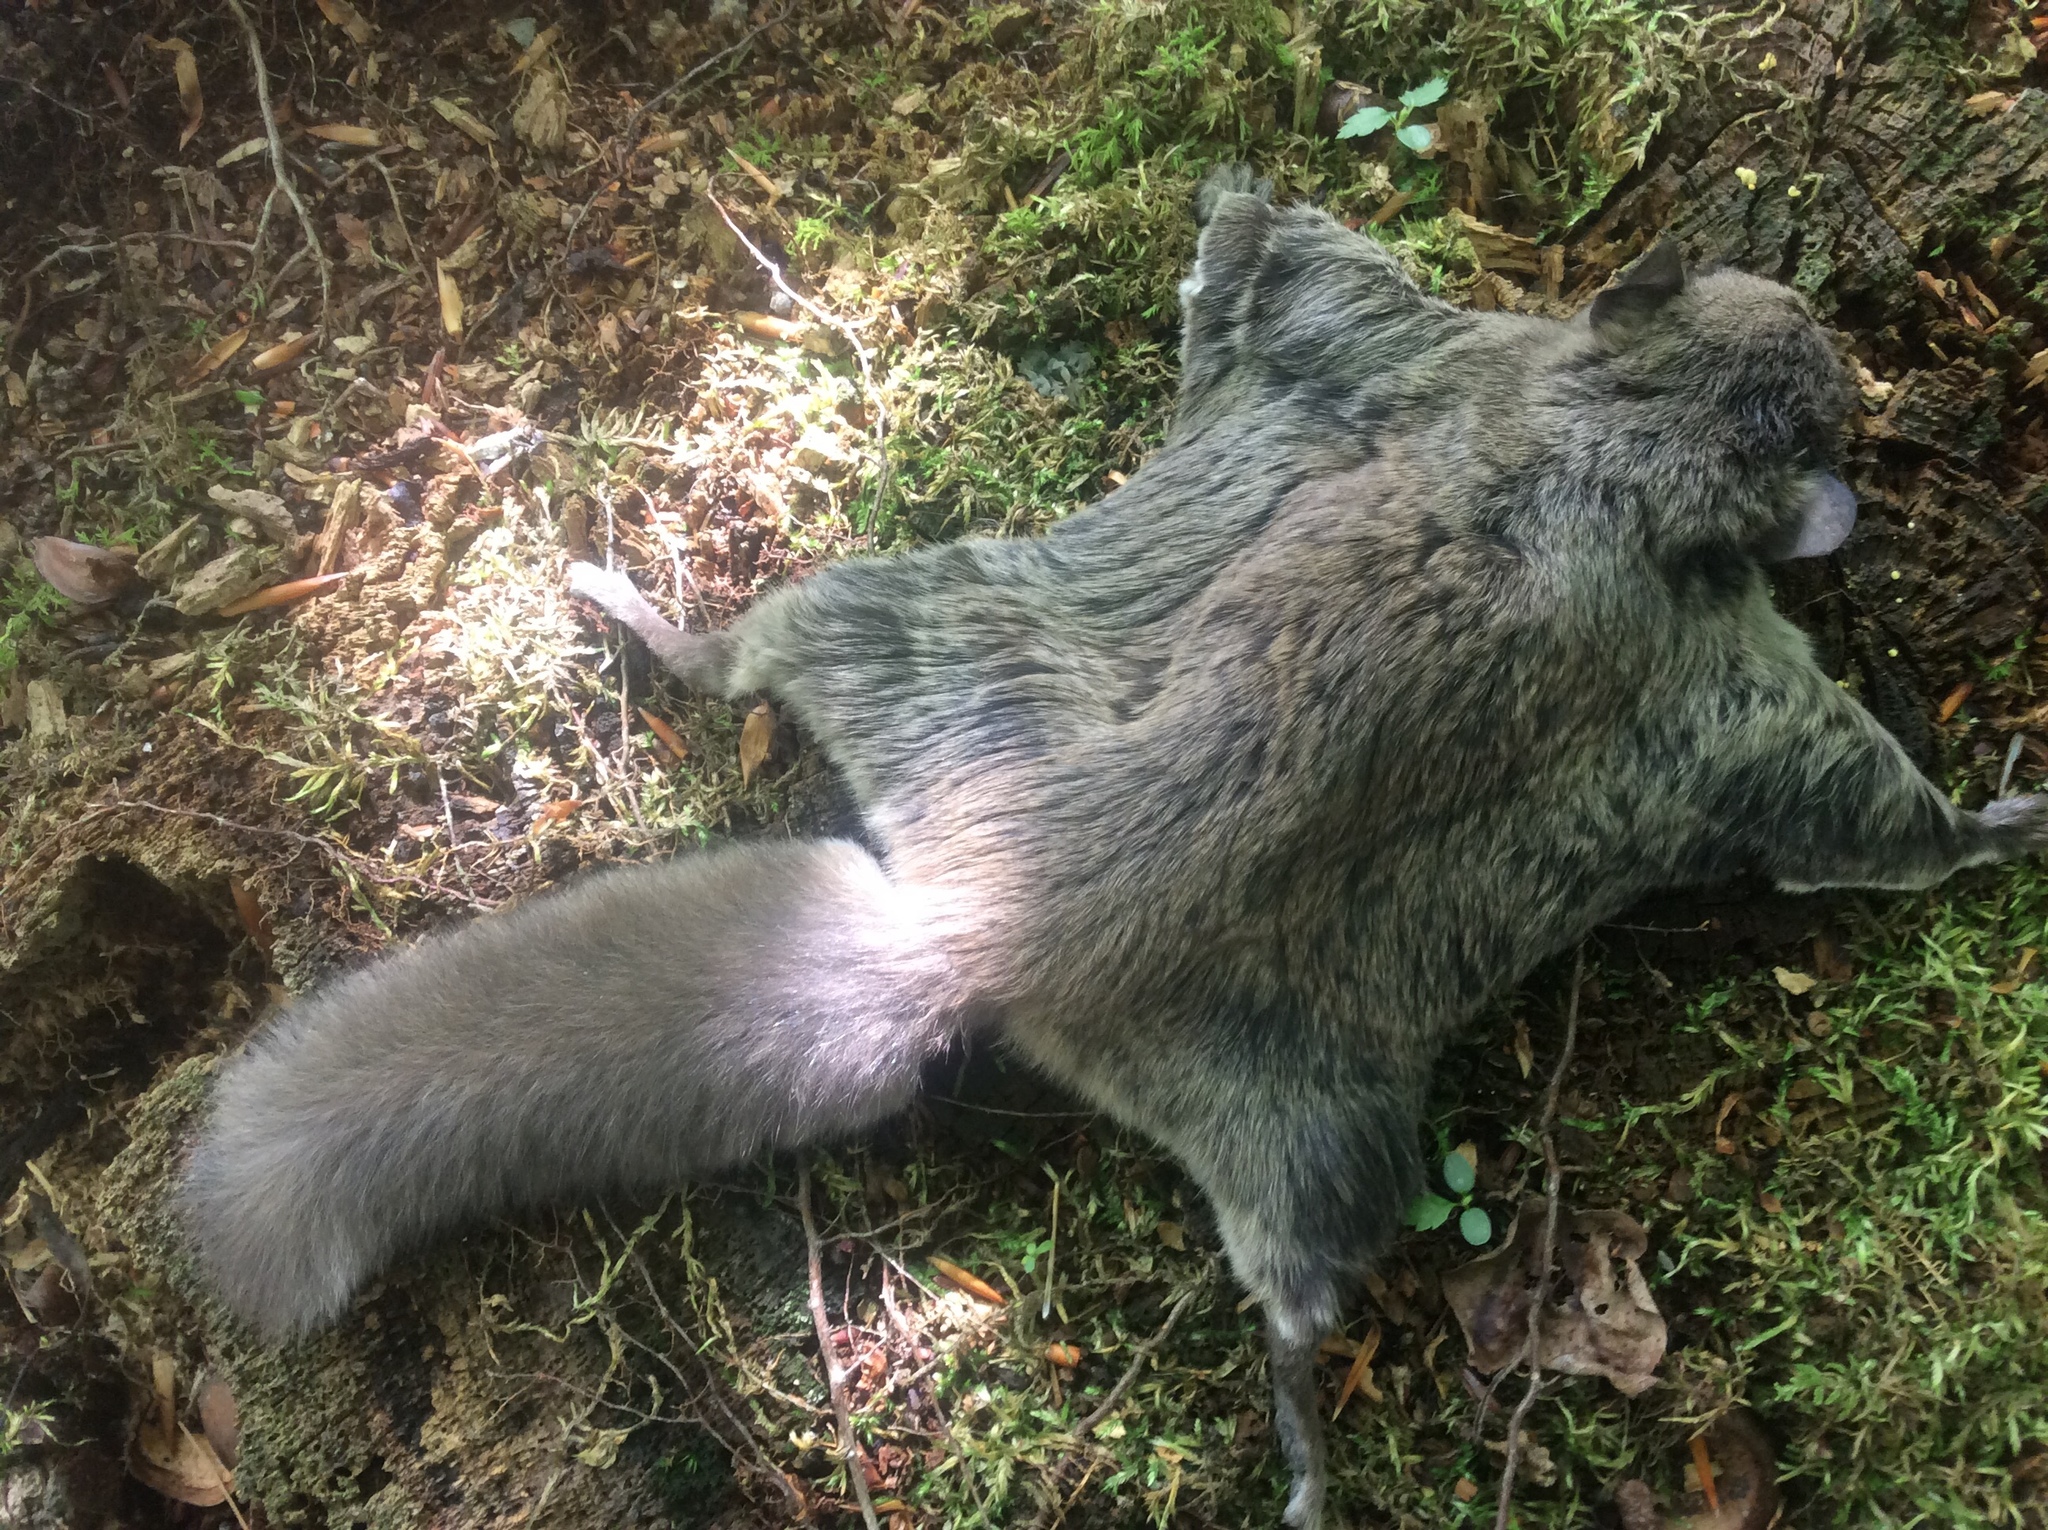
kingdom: Animalia
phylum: Chordata
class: Mammalia
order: Rodentia
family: Sciuridae
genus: Glaucomys
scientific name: Glaucomys sabrinus
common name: Northern flying squirrel
